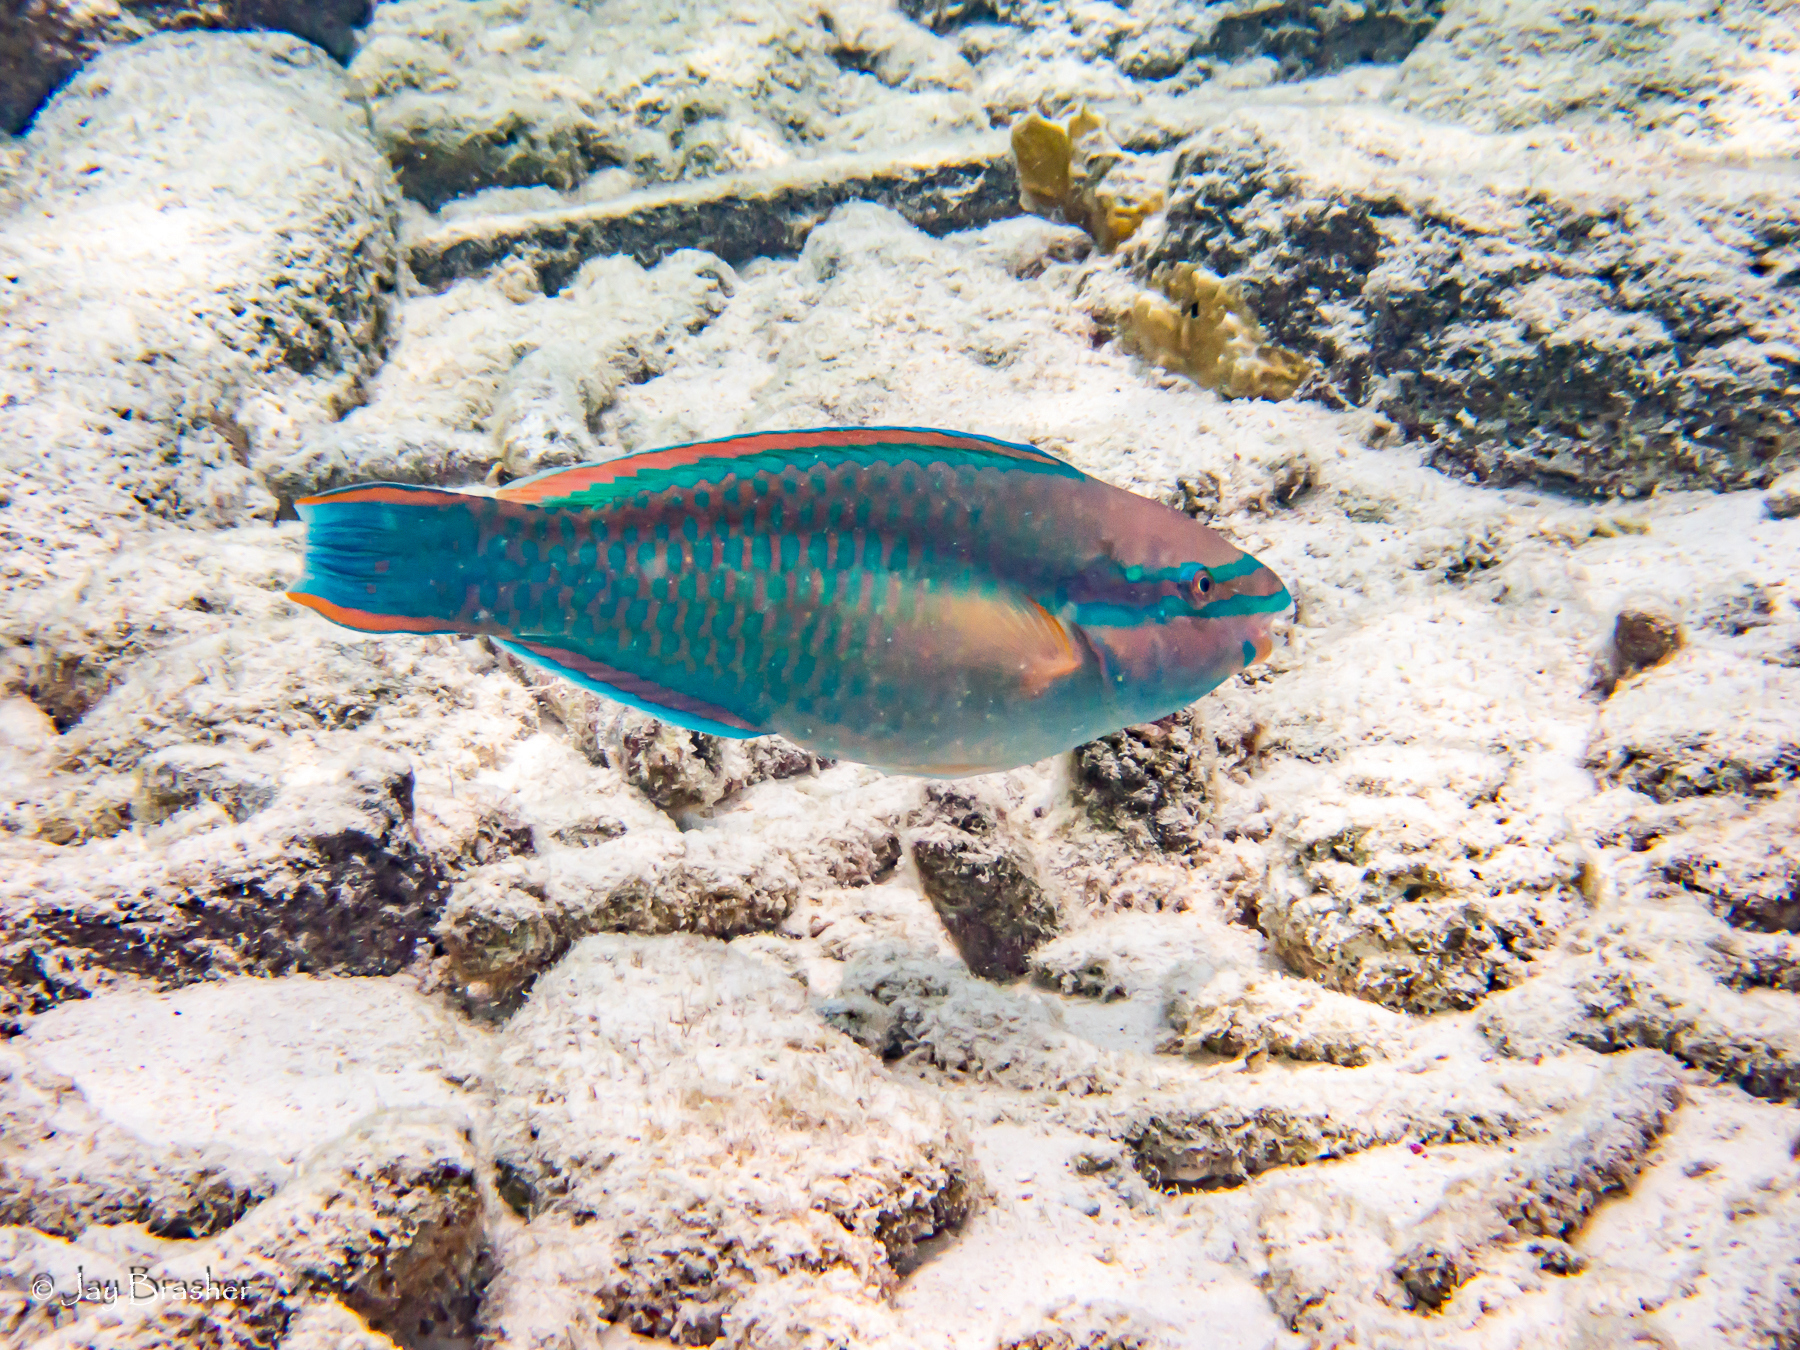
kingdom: Animalia
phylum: Chordata
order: Perciformes
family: Scaridae
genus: Scarus
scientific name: Scarus taeniopterus
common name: Princess parrotfish
